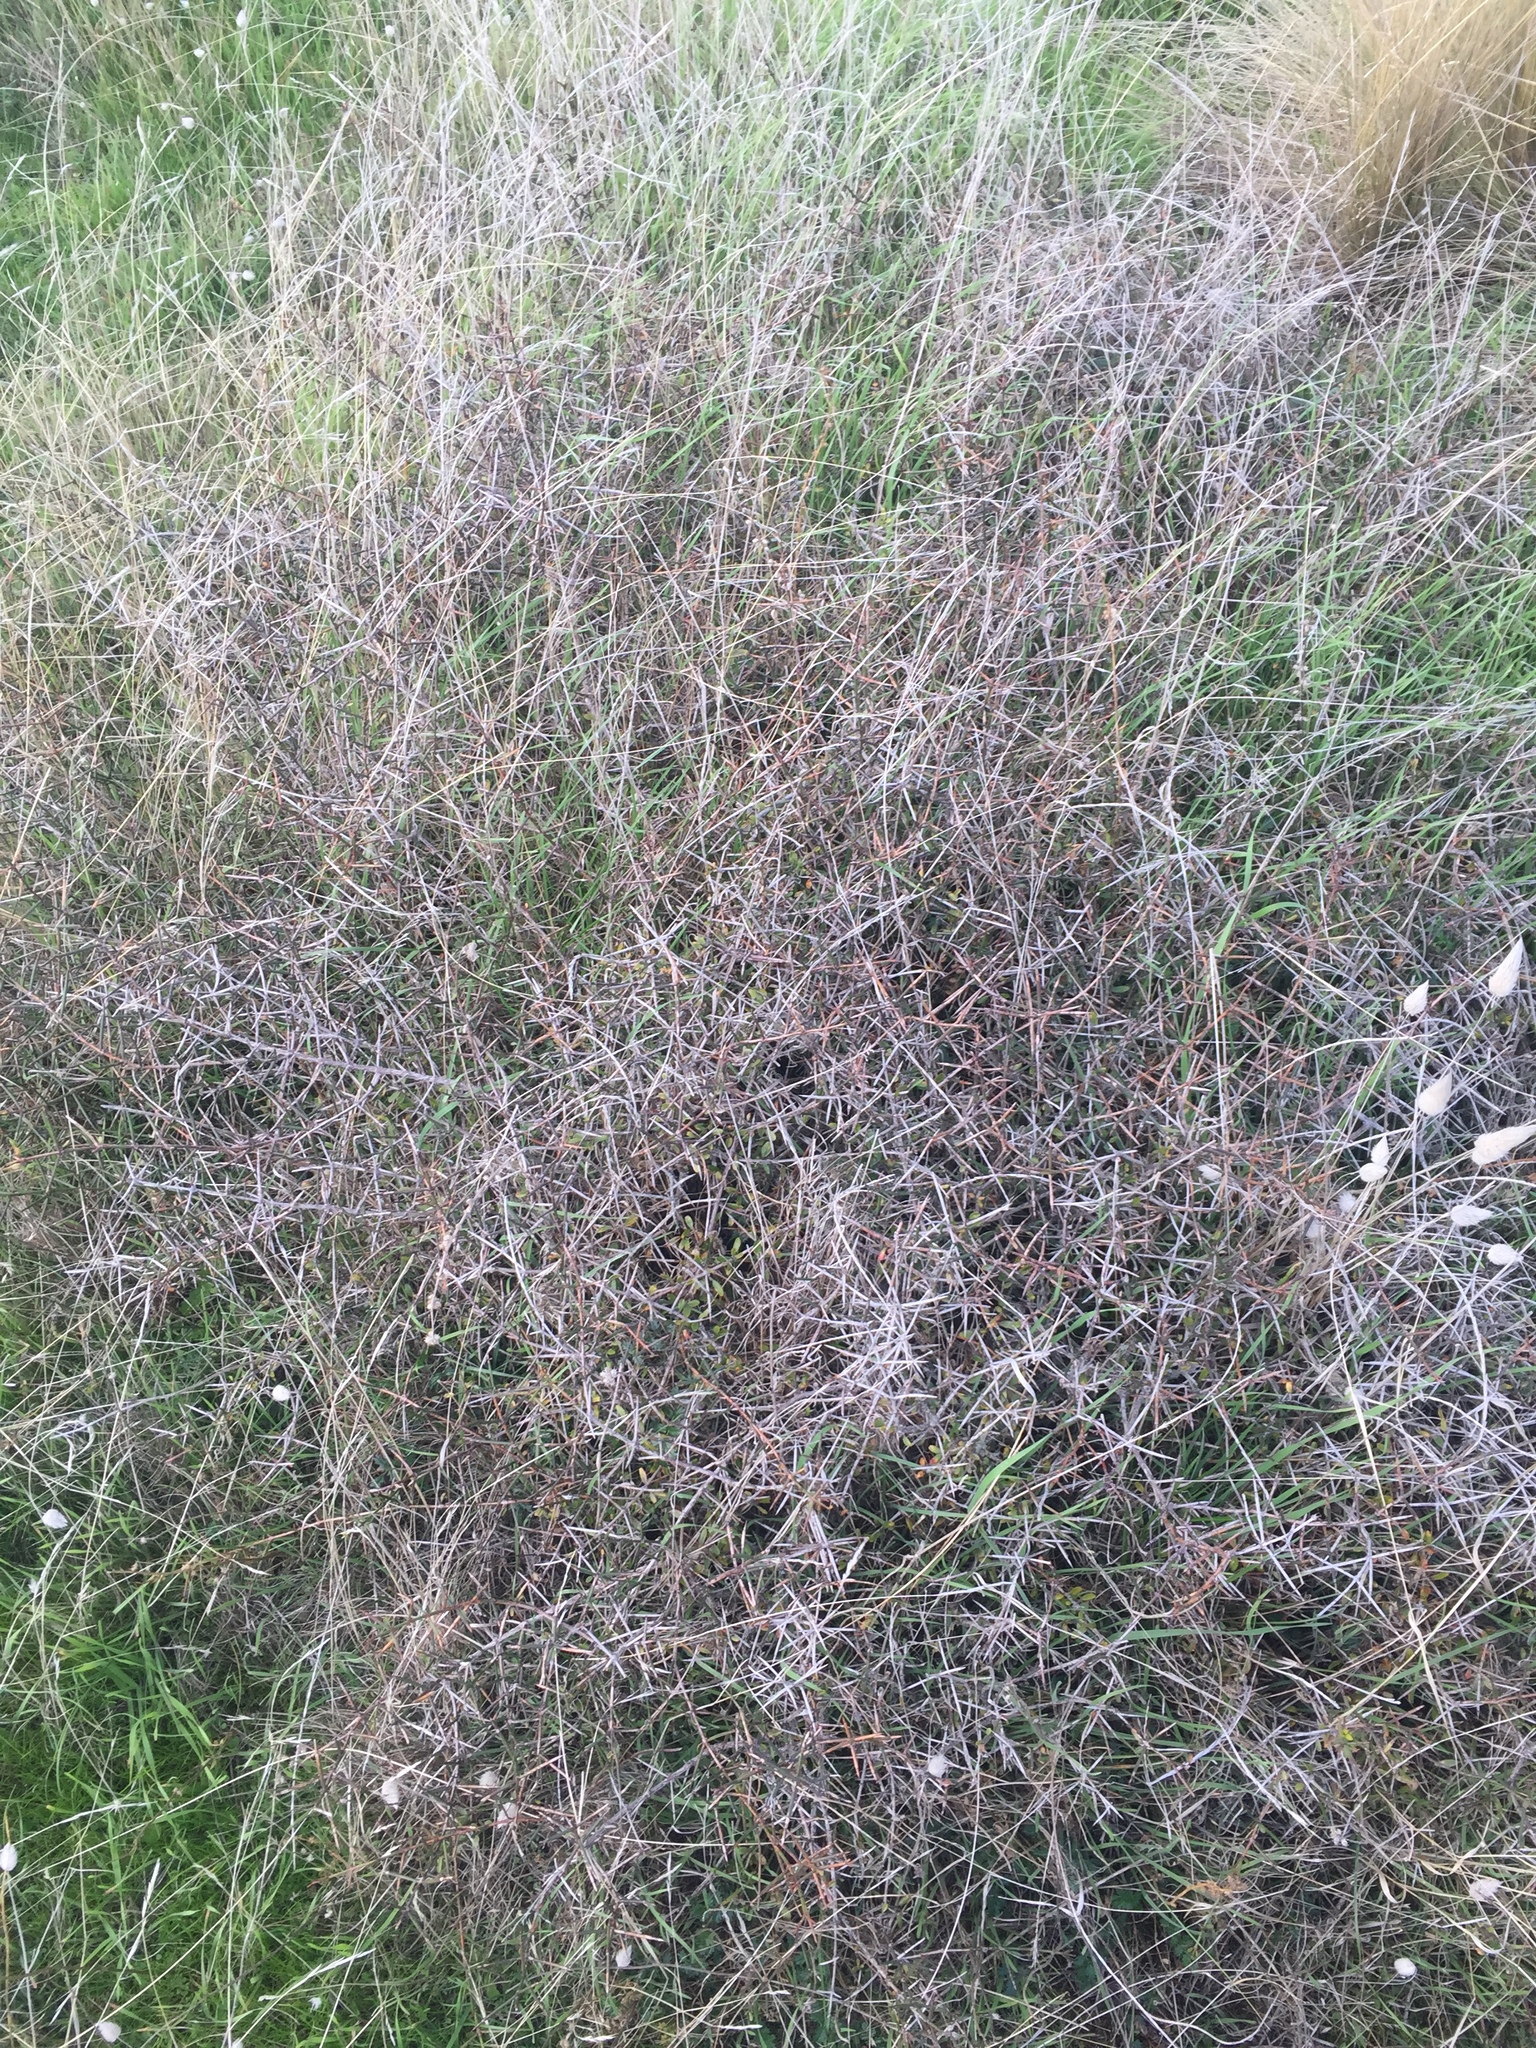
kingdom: Plantae
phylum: Tracheophyta
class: Magnoliopsida
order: Rosales
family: Rhamnaceae
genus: Discaria
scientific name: Discaria toumatou
